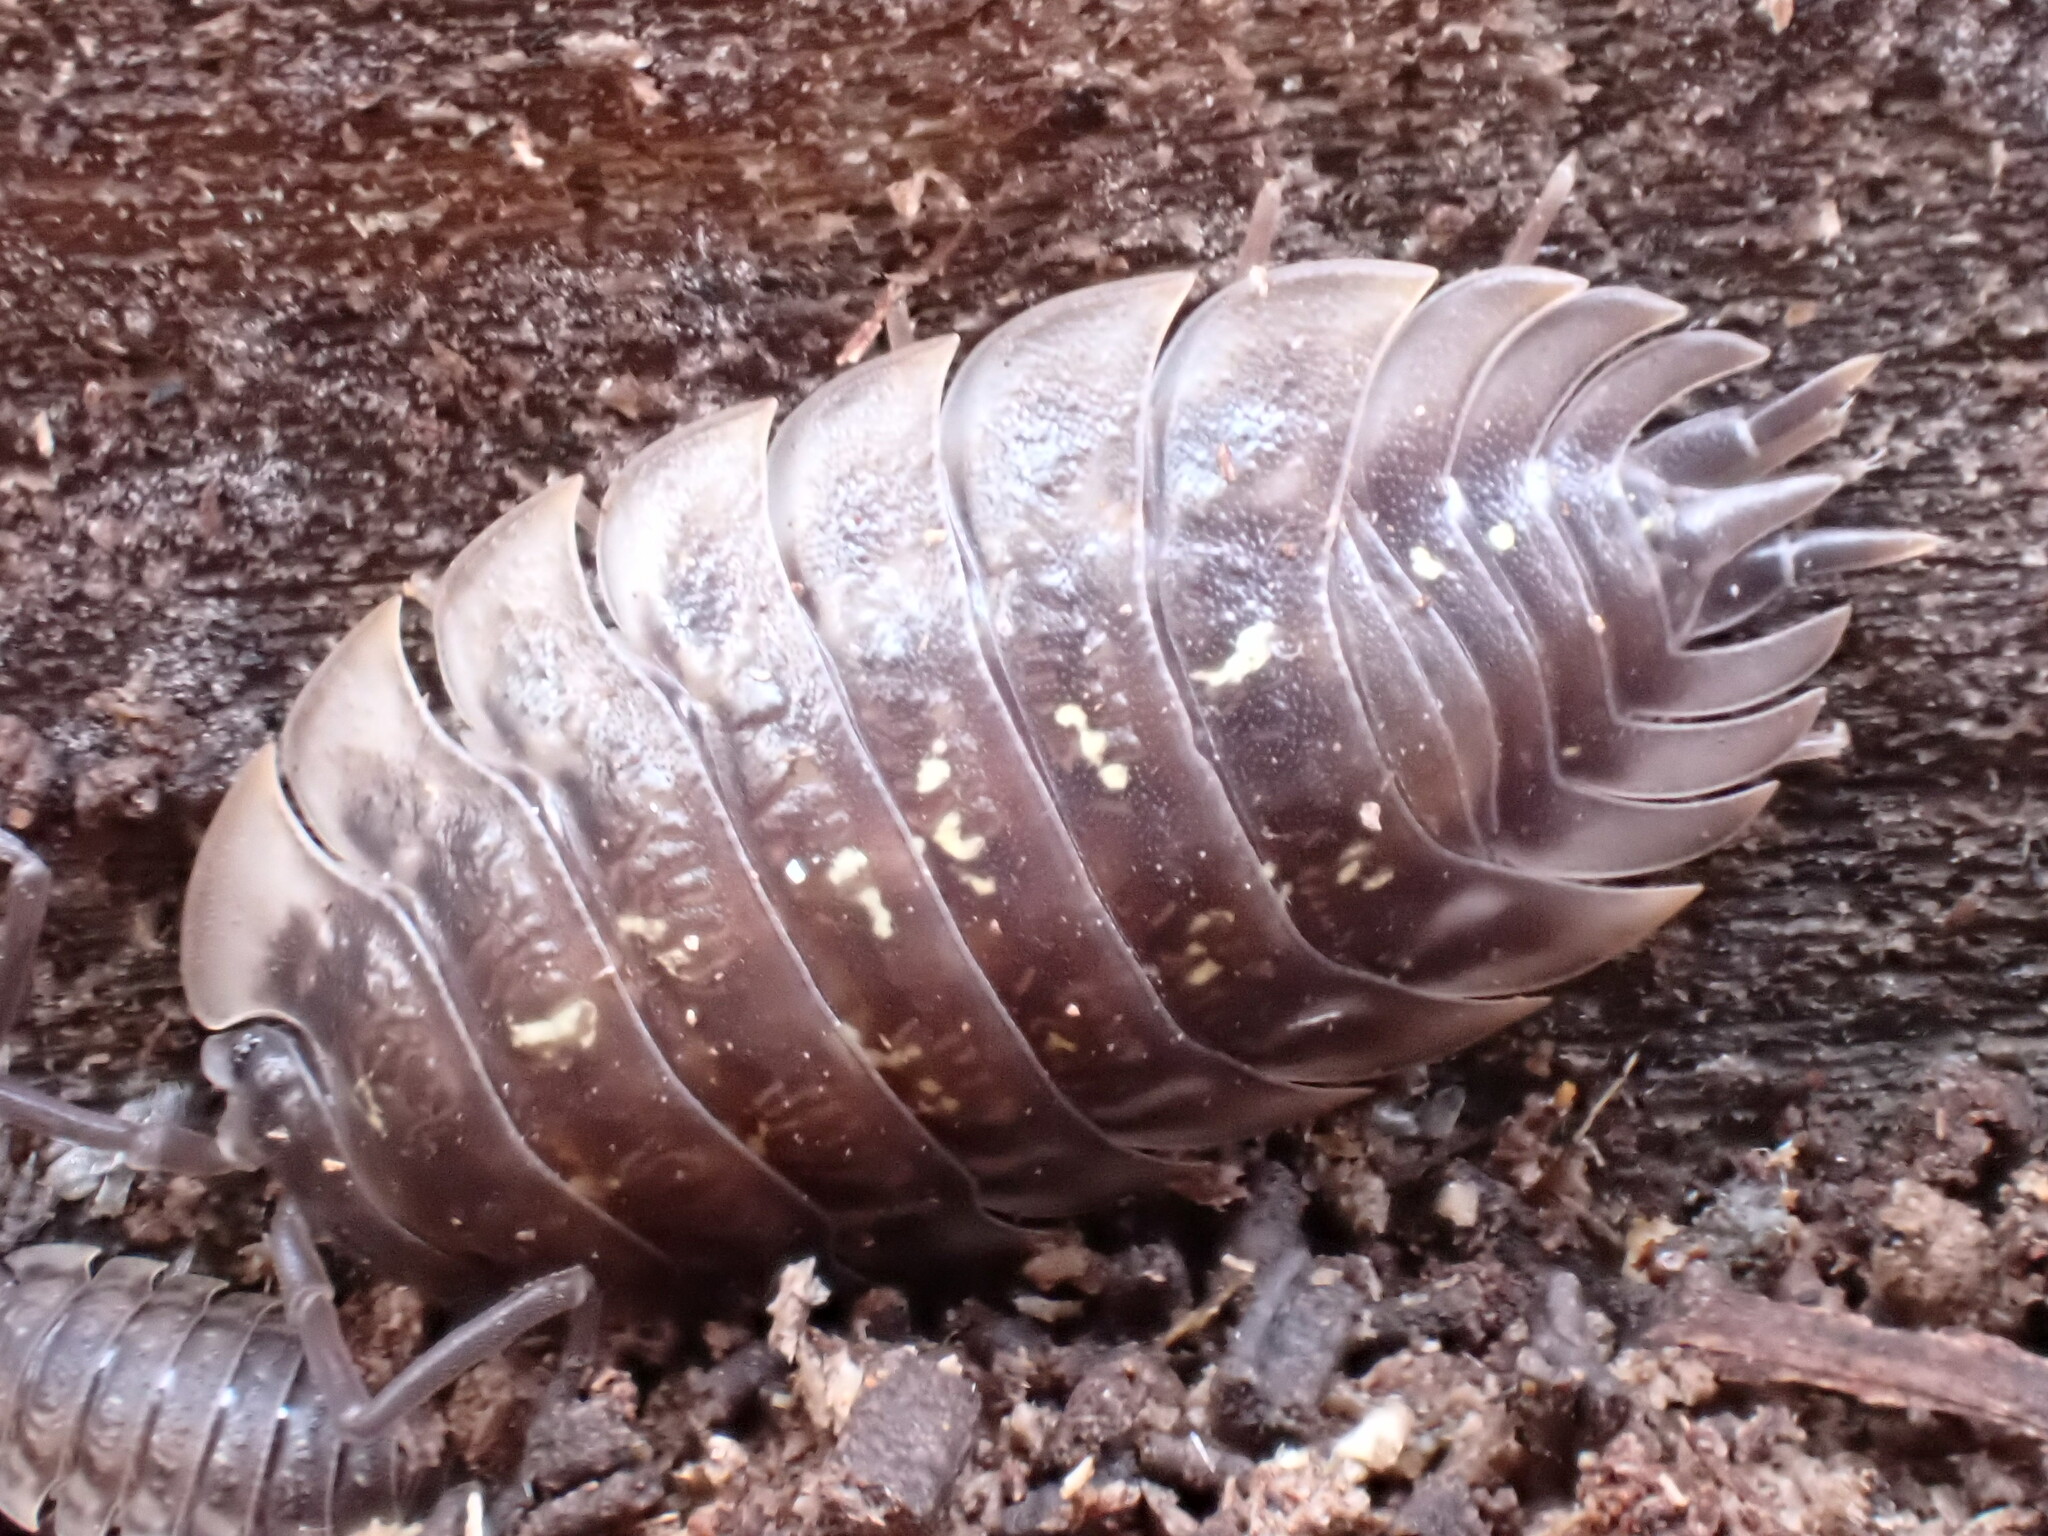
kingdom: Animalia
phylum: Arthropoda
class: Malacostraca
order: Isopoda
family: Oniscidae
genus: Oniscus
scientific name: Oniscus asellus
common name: Common shiny woodlouse
